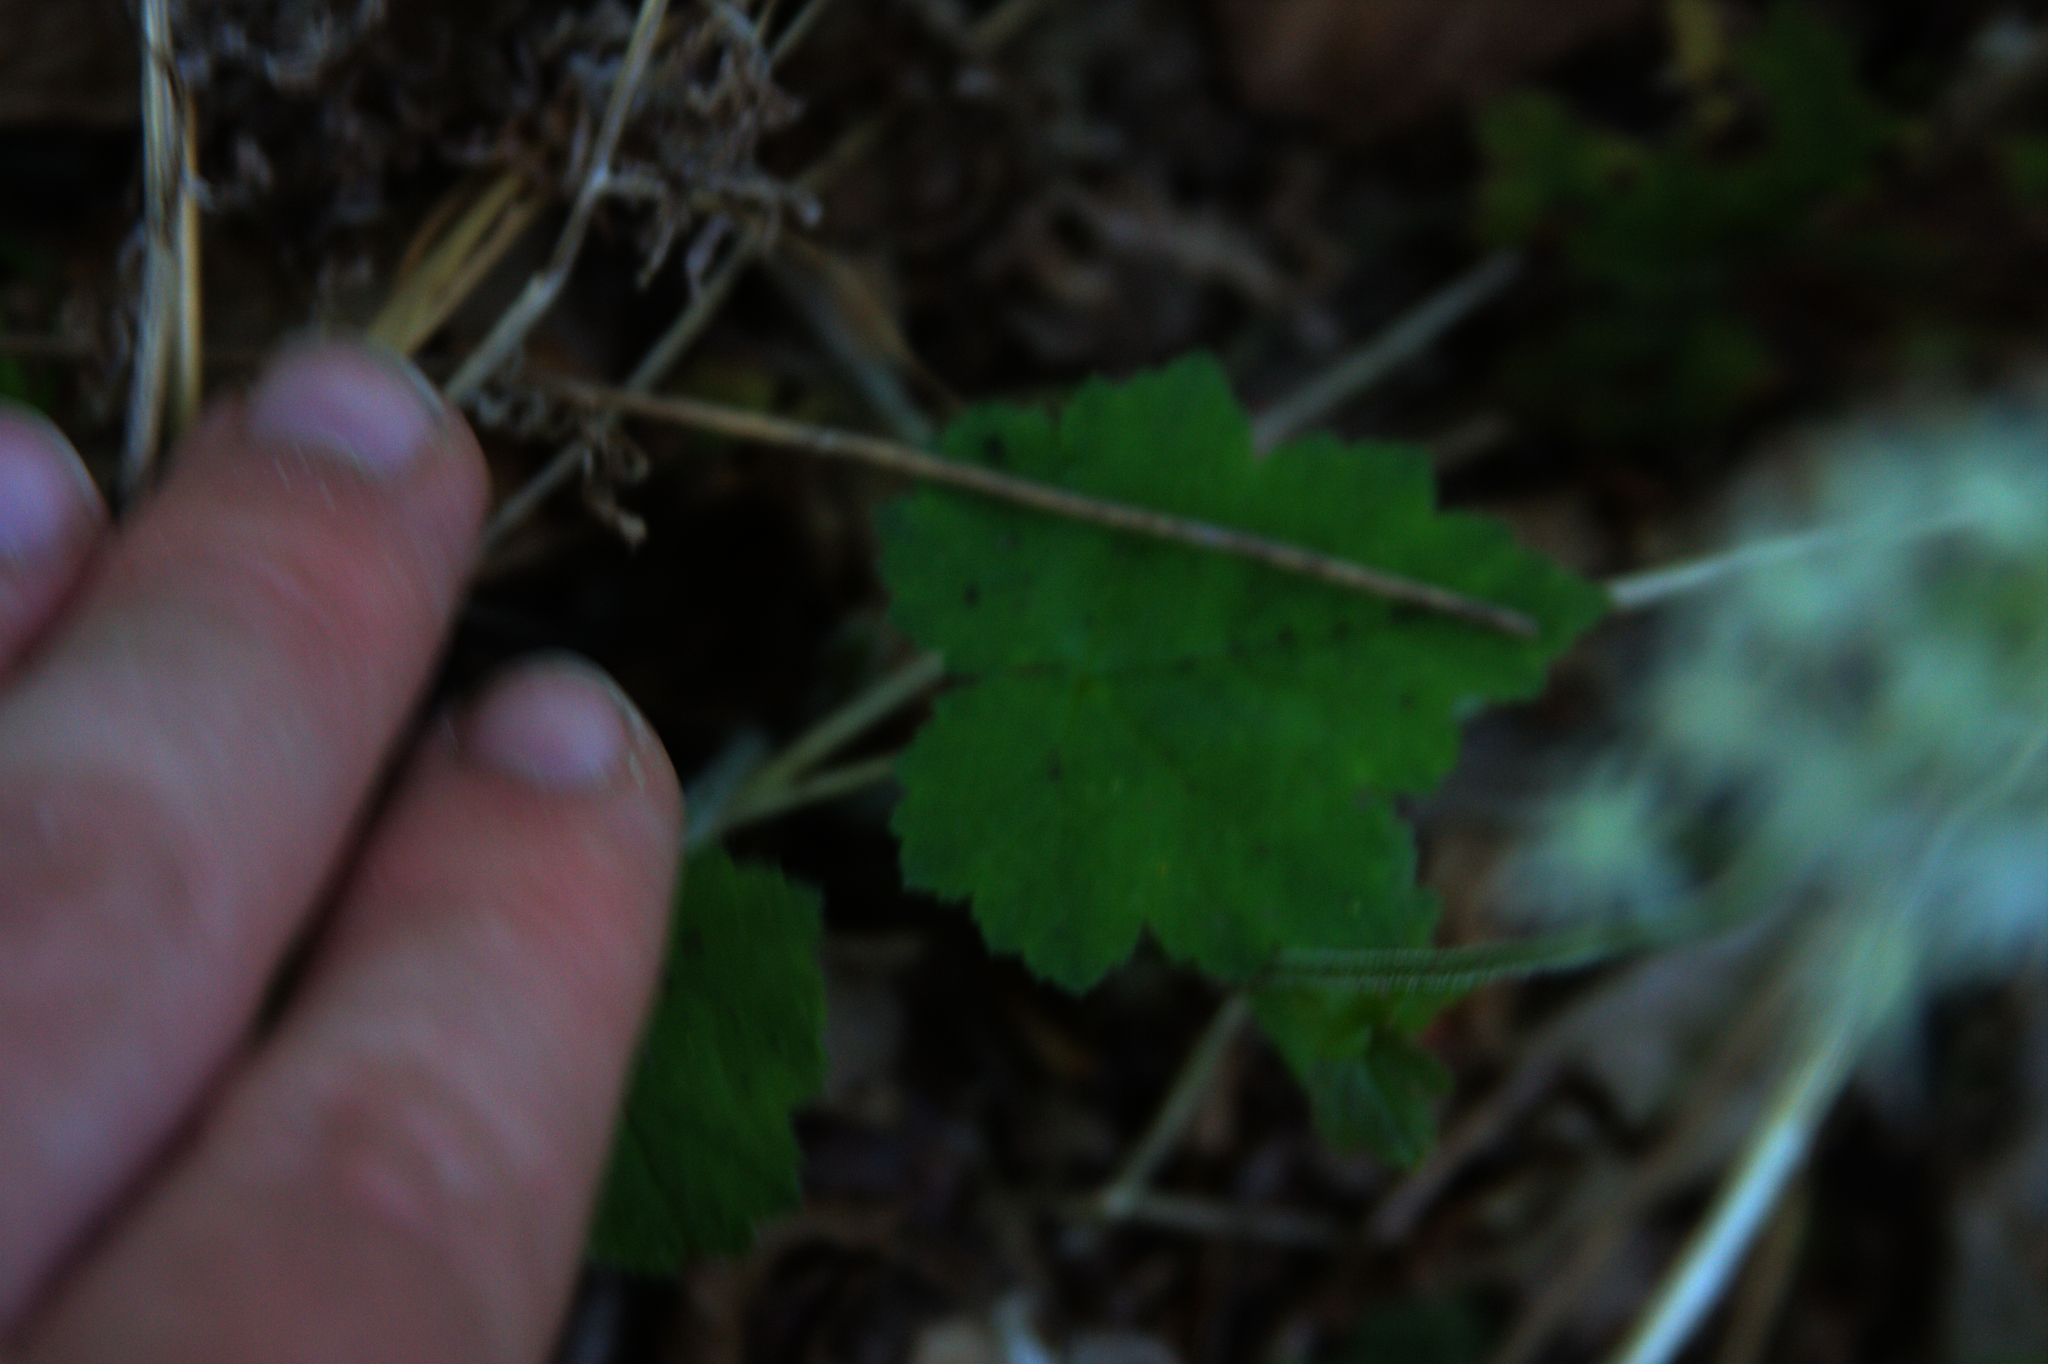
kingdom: Plantae
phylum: Tracheophyta
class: Magnoliopsida
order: Saxifragales
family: Saxifragaceae
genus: Tiarella
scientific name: Tiarella stolonifera
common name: Stoloniferous foamflower
